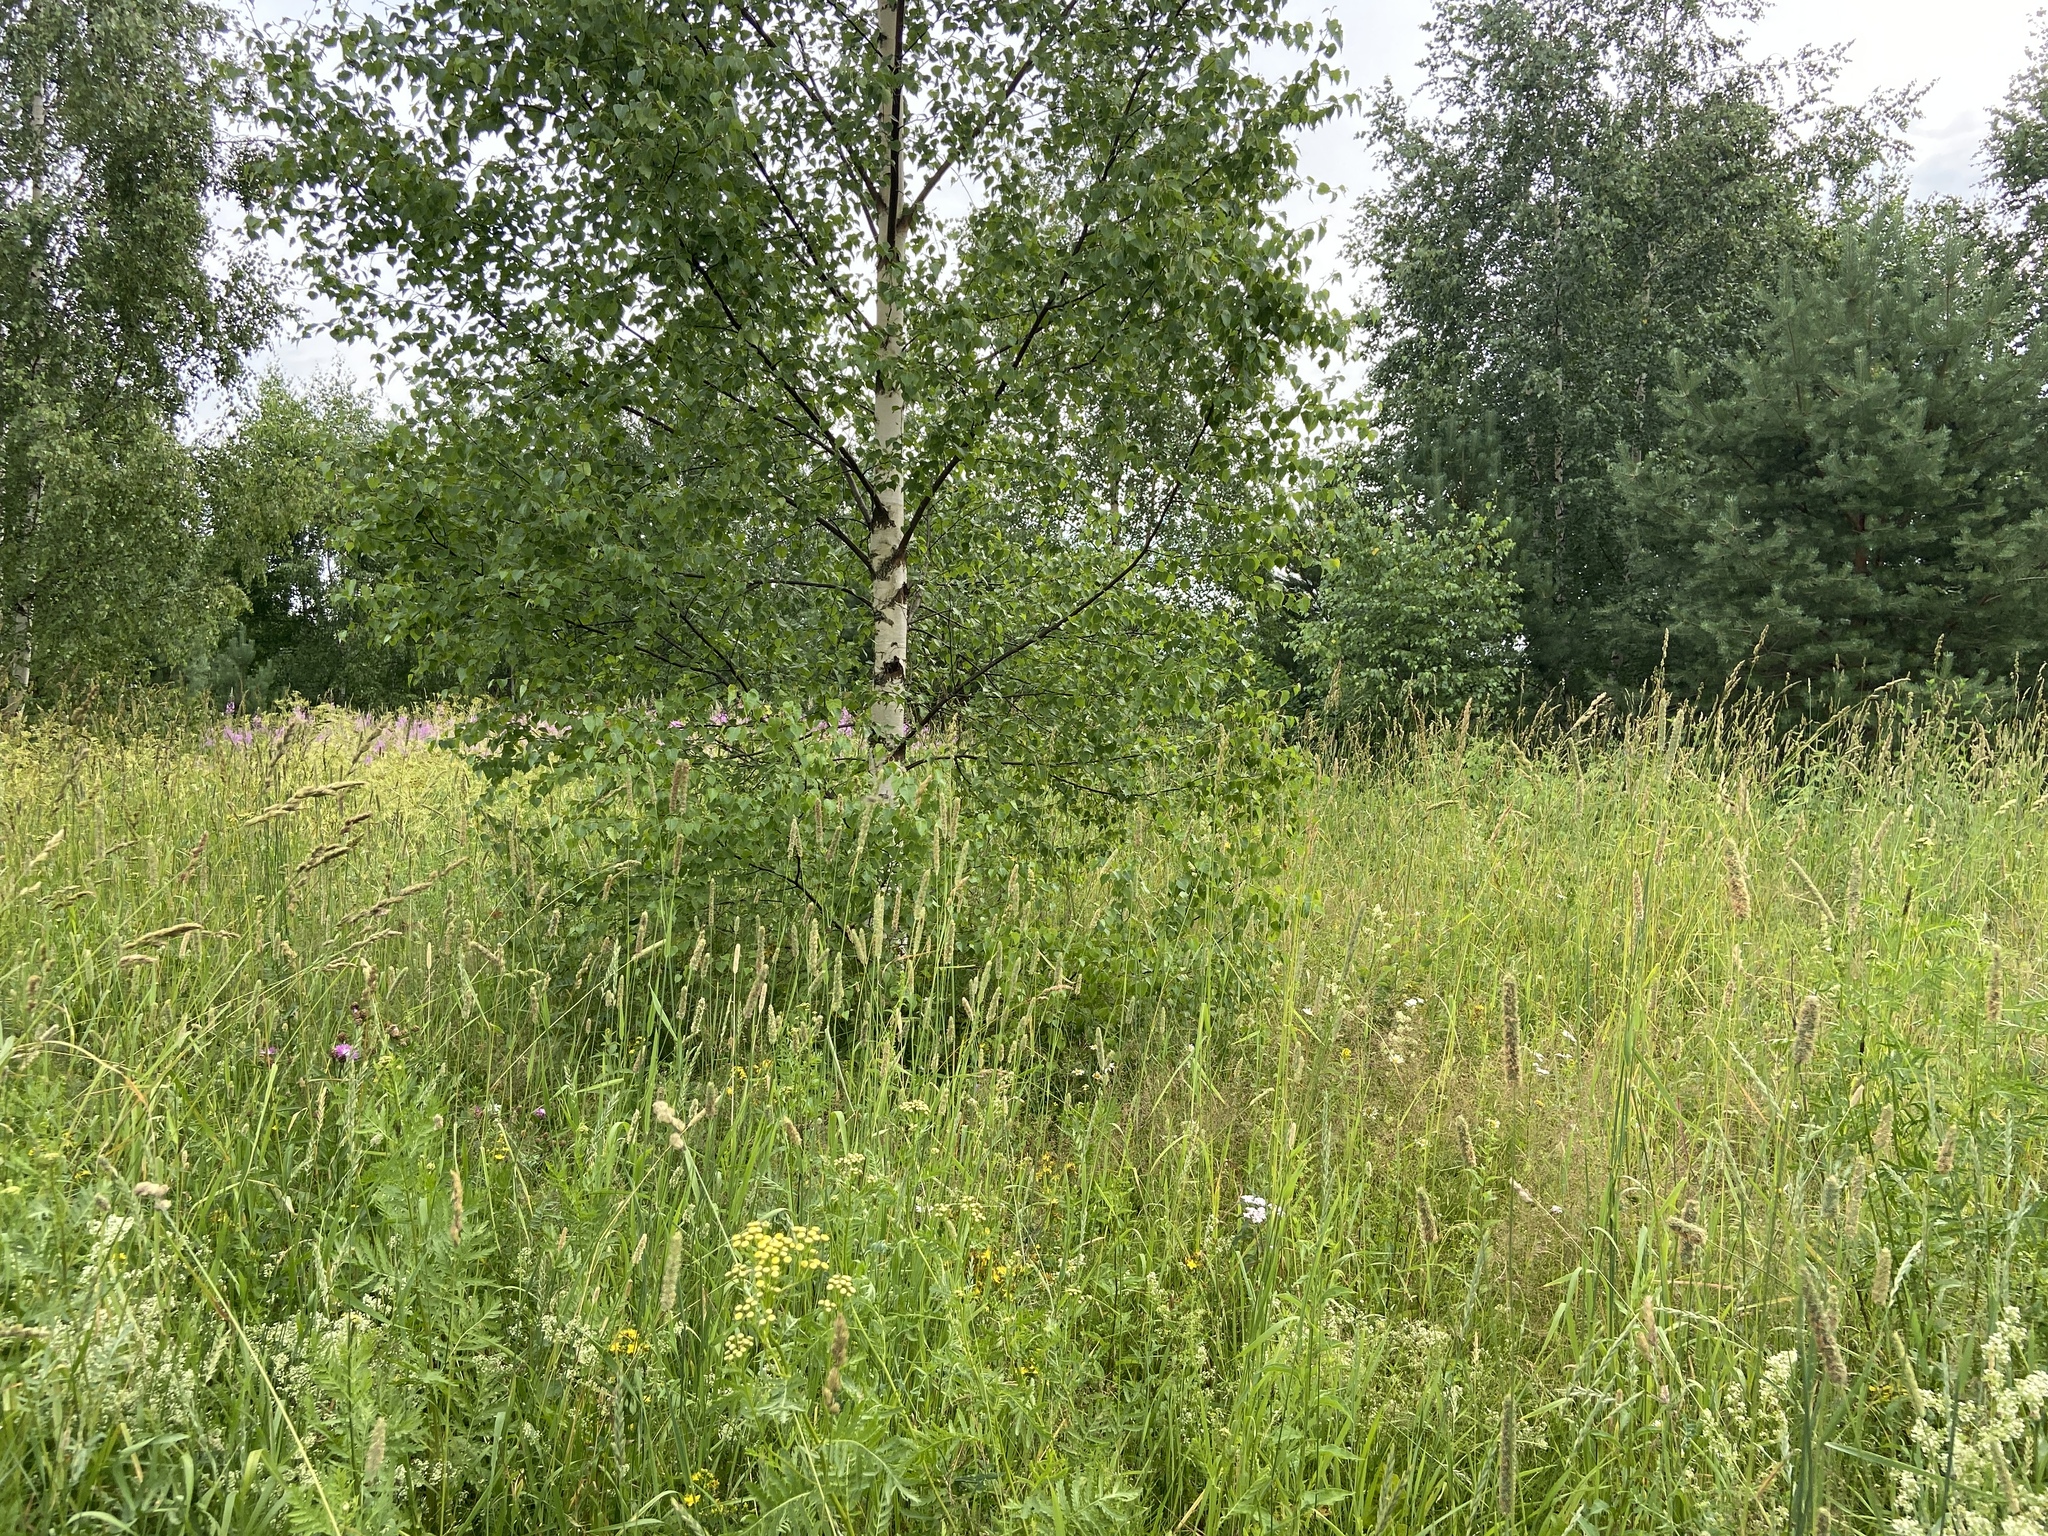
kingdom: Plantae
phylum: Tracheophyta
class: Magnoliopsida
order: Fagales
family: Betulaceae
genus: Betula
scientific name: Betula pendula
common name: Silver birch
